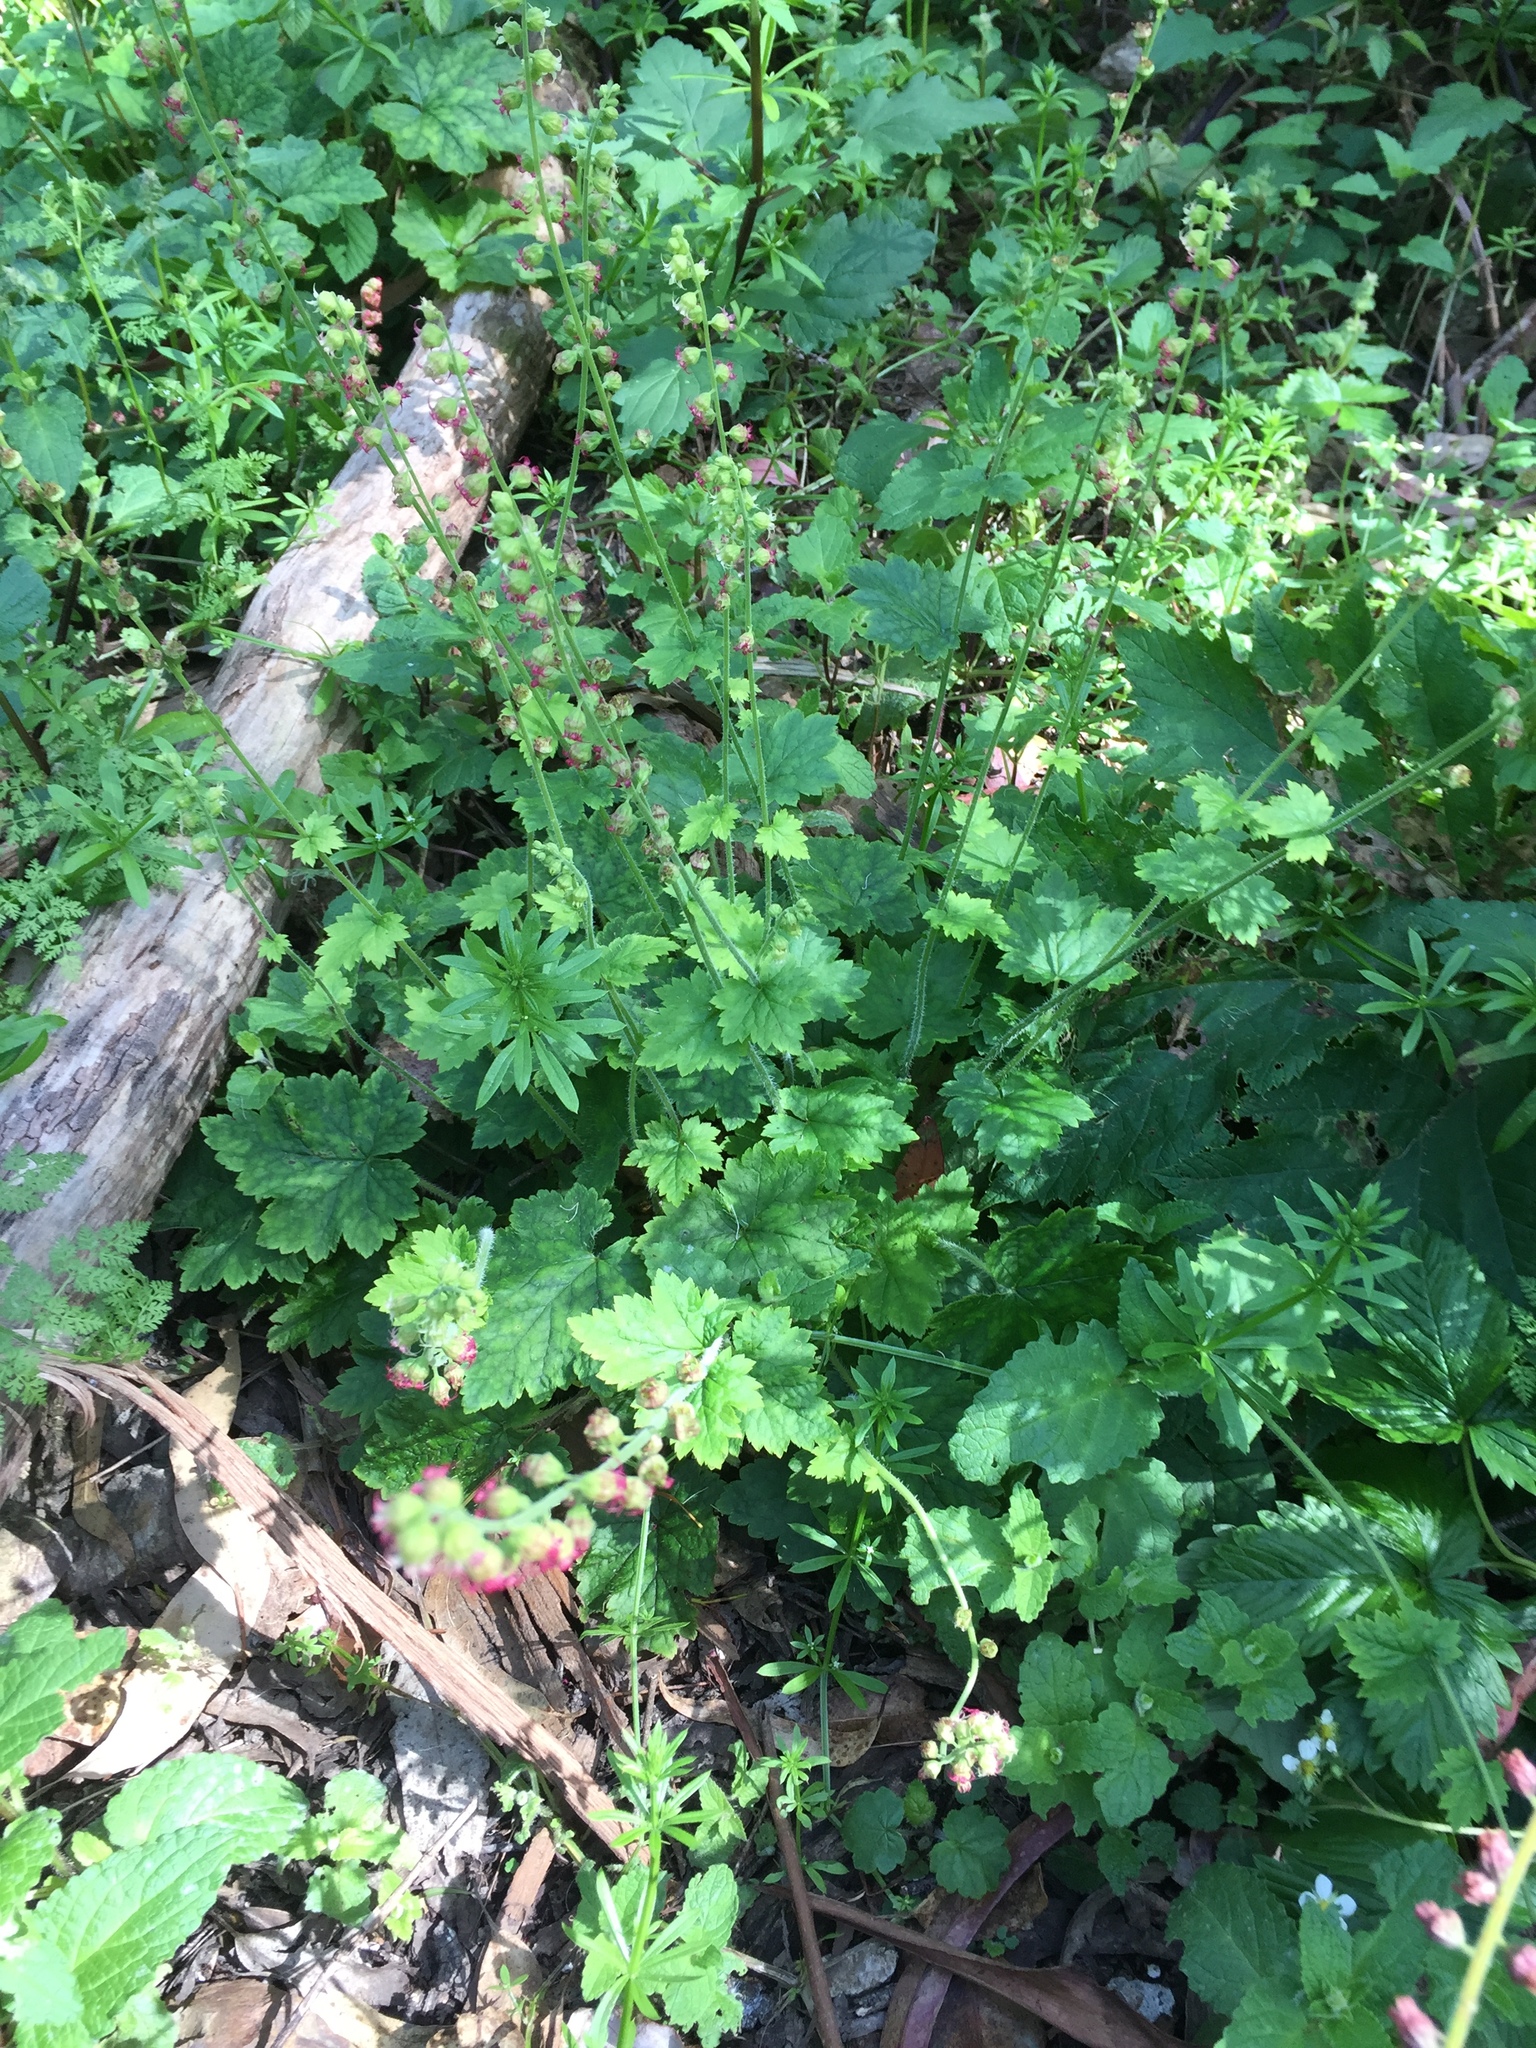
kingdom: Plantae
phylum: Tracheophyta
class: Magnoliopsida
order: Saxifragales
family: Saxifragaceae
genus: Tellima
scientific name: Tellima grandiflora
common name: Fringecups
